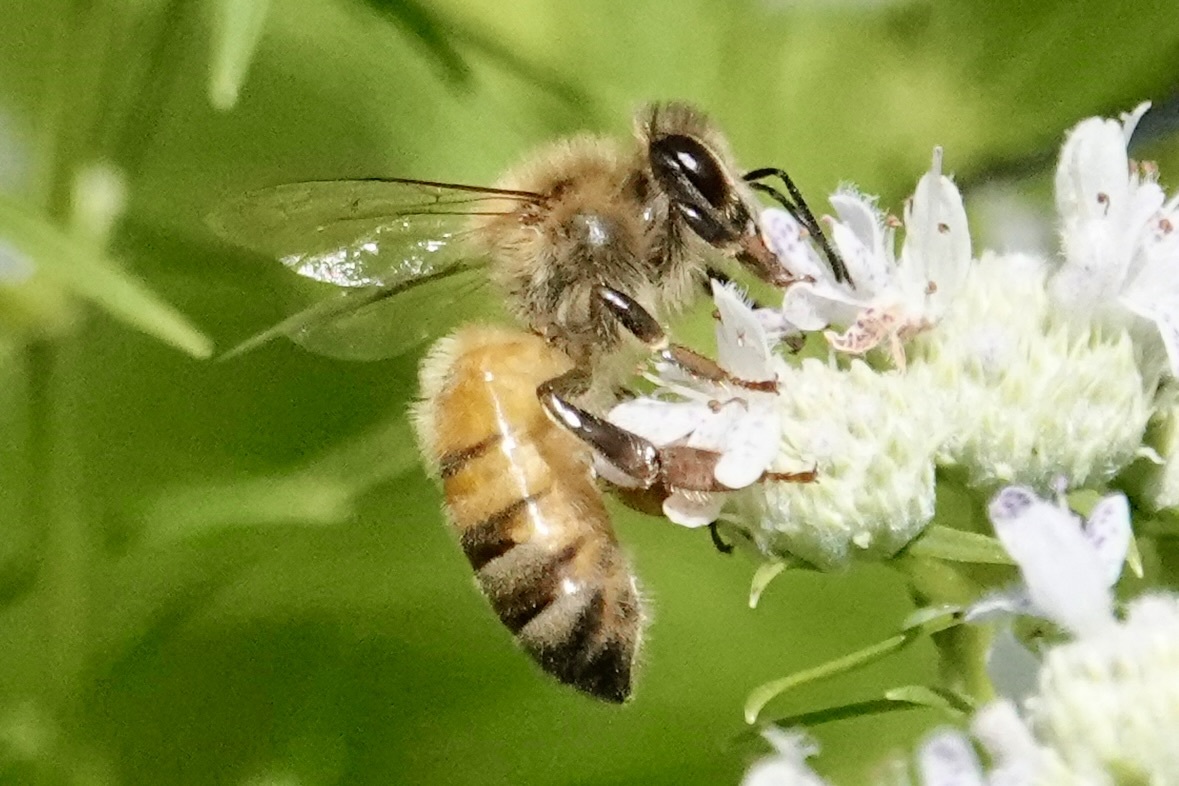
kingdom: Animalia
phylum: Arthropoda
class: Insecta
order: Hymenoptera
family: Apidae
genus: Apis
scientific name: Apis mellifera
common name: Honey bee
